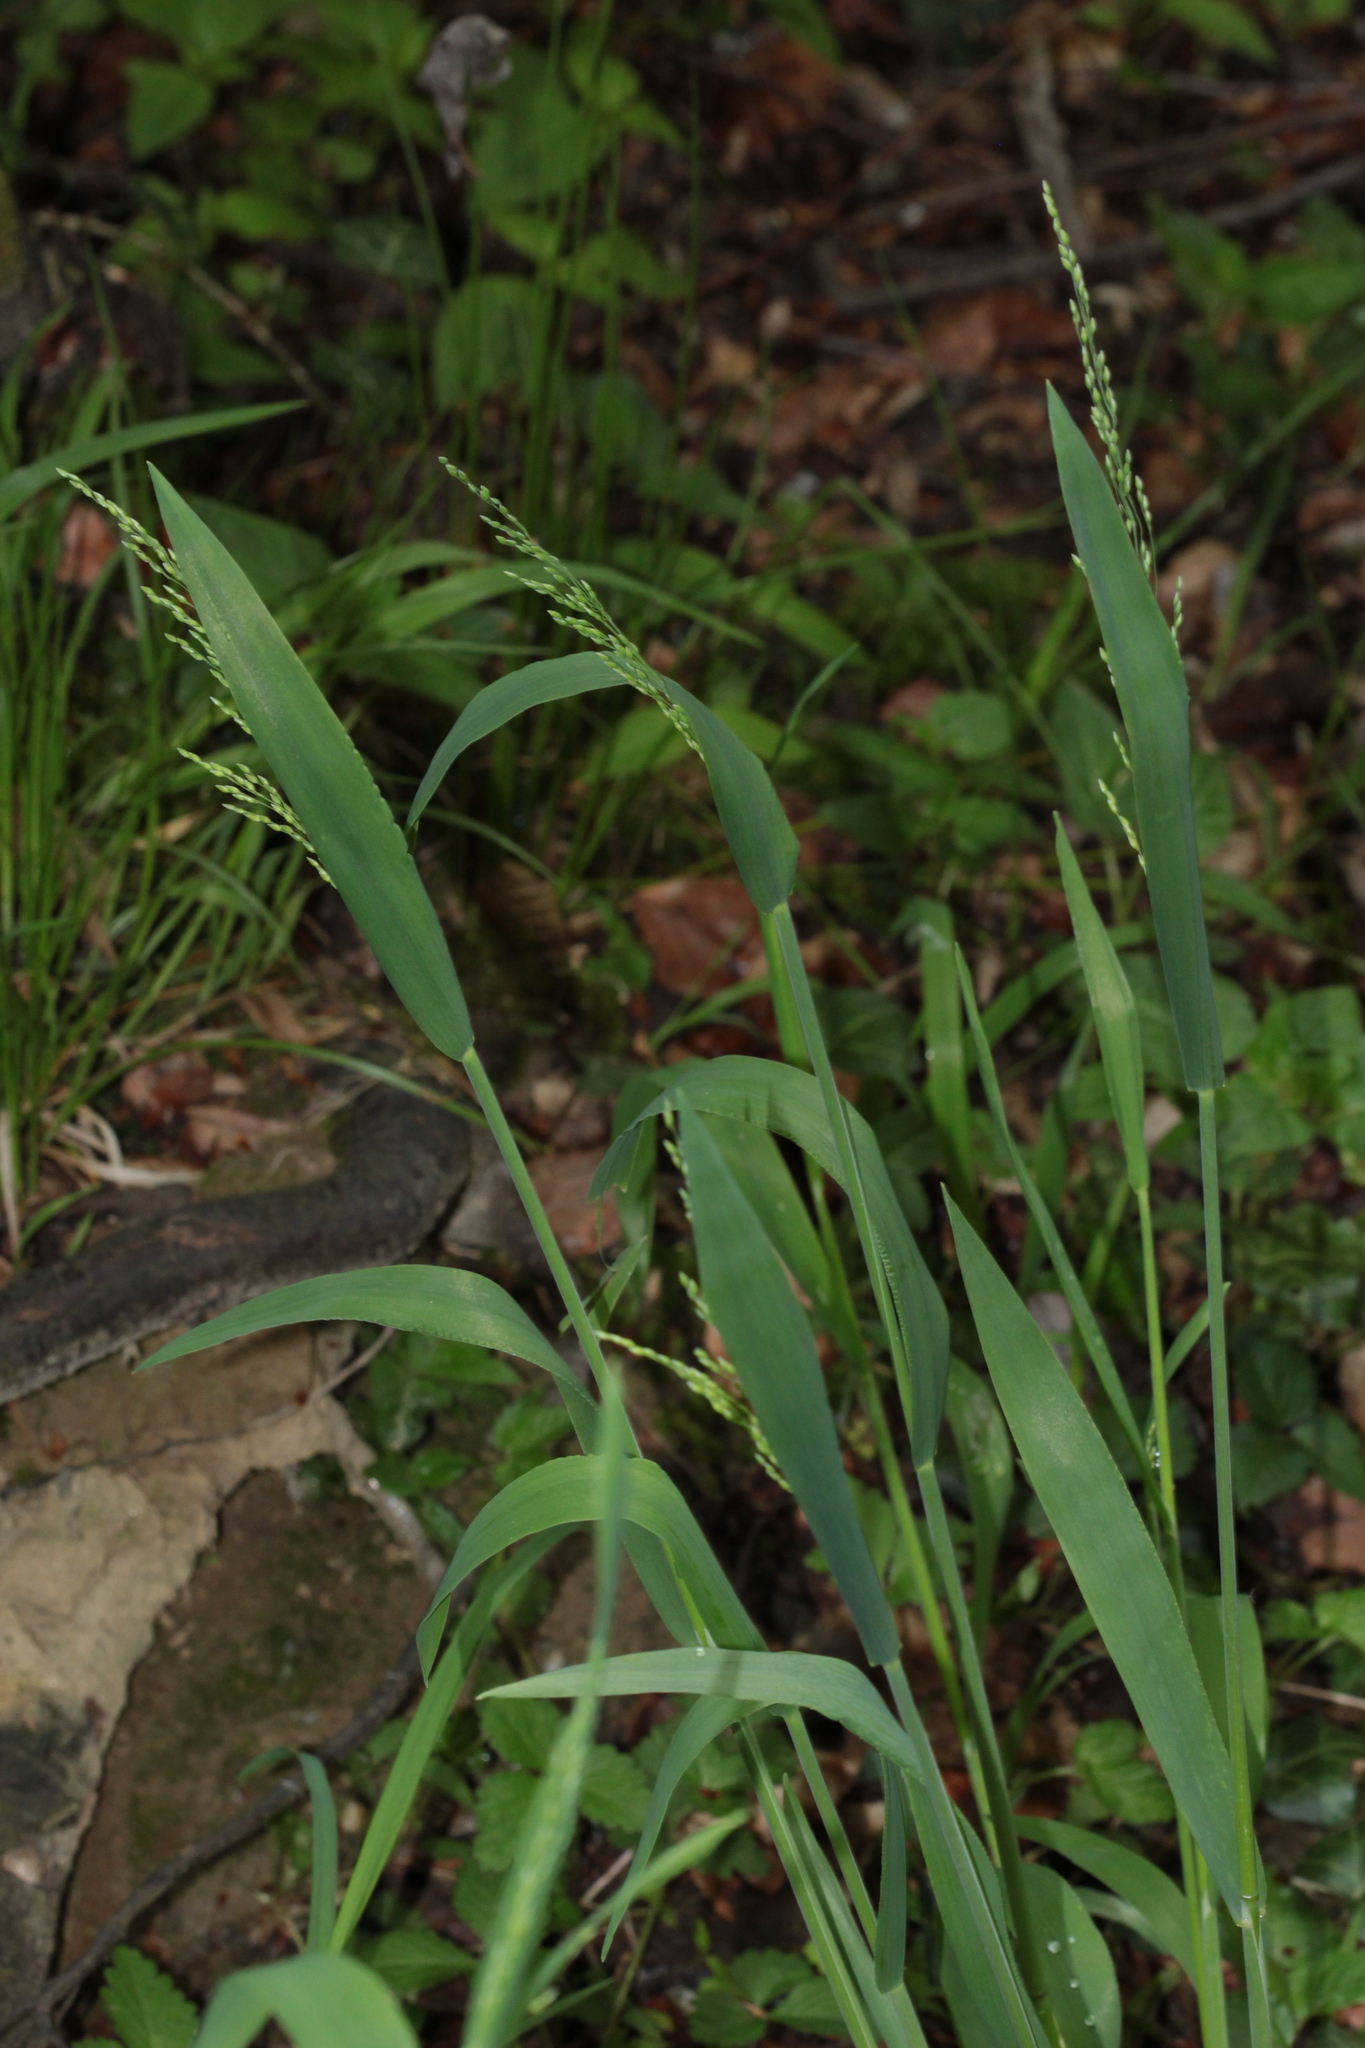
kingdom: Plantae
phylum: Tracheophyta
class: Liliopsida
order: Poales
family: Poaceae
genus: Milium
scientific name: Milium effusum
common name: Wood millet
